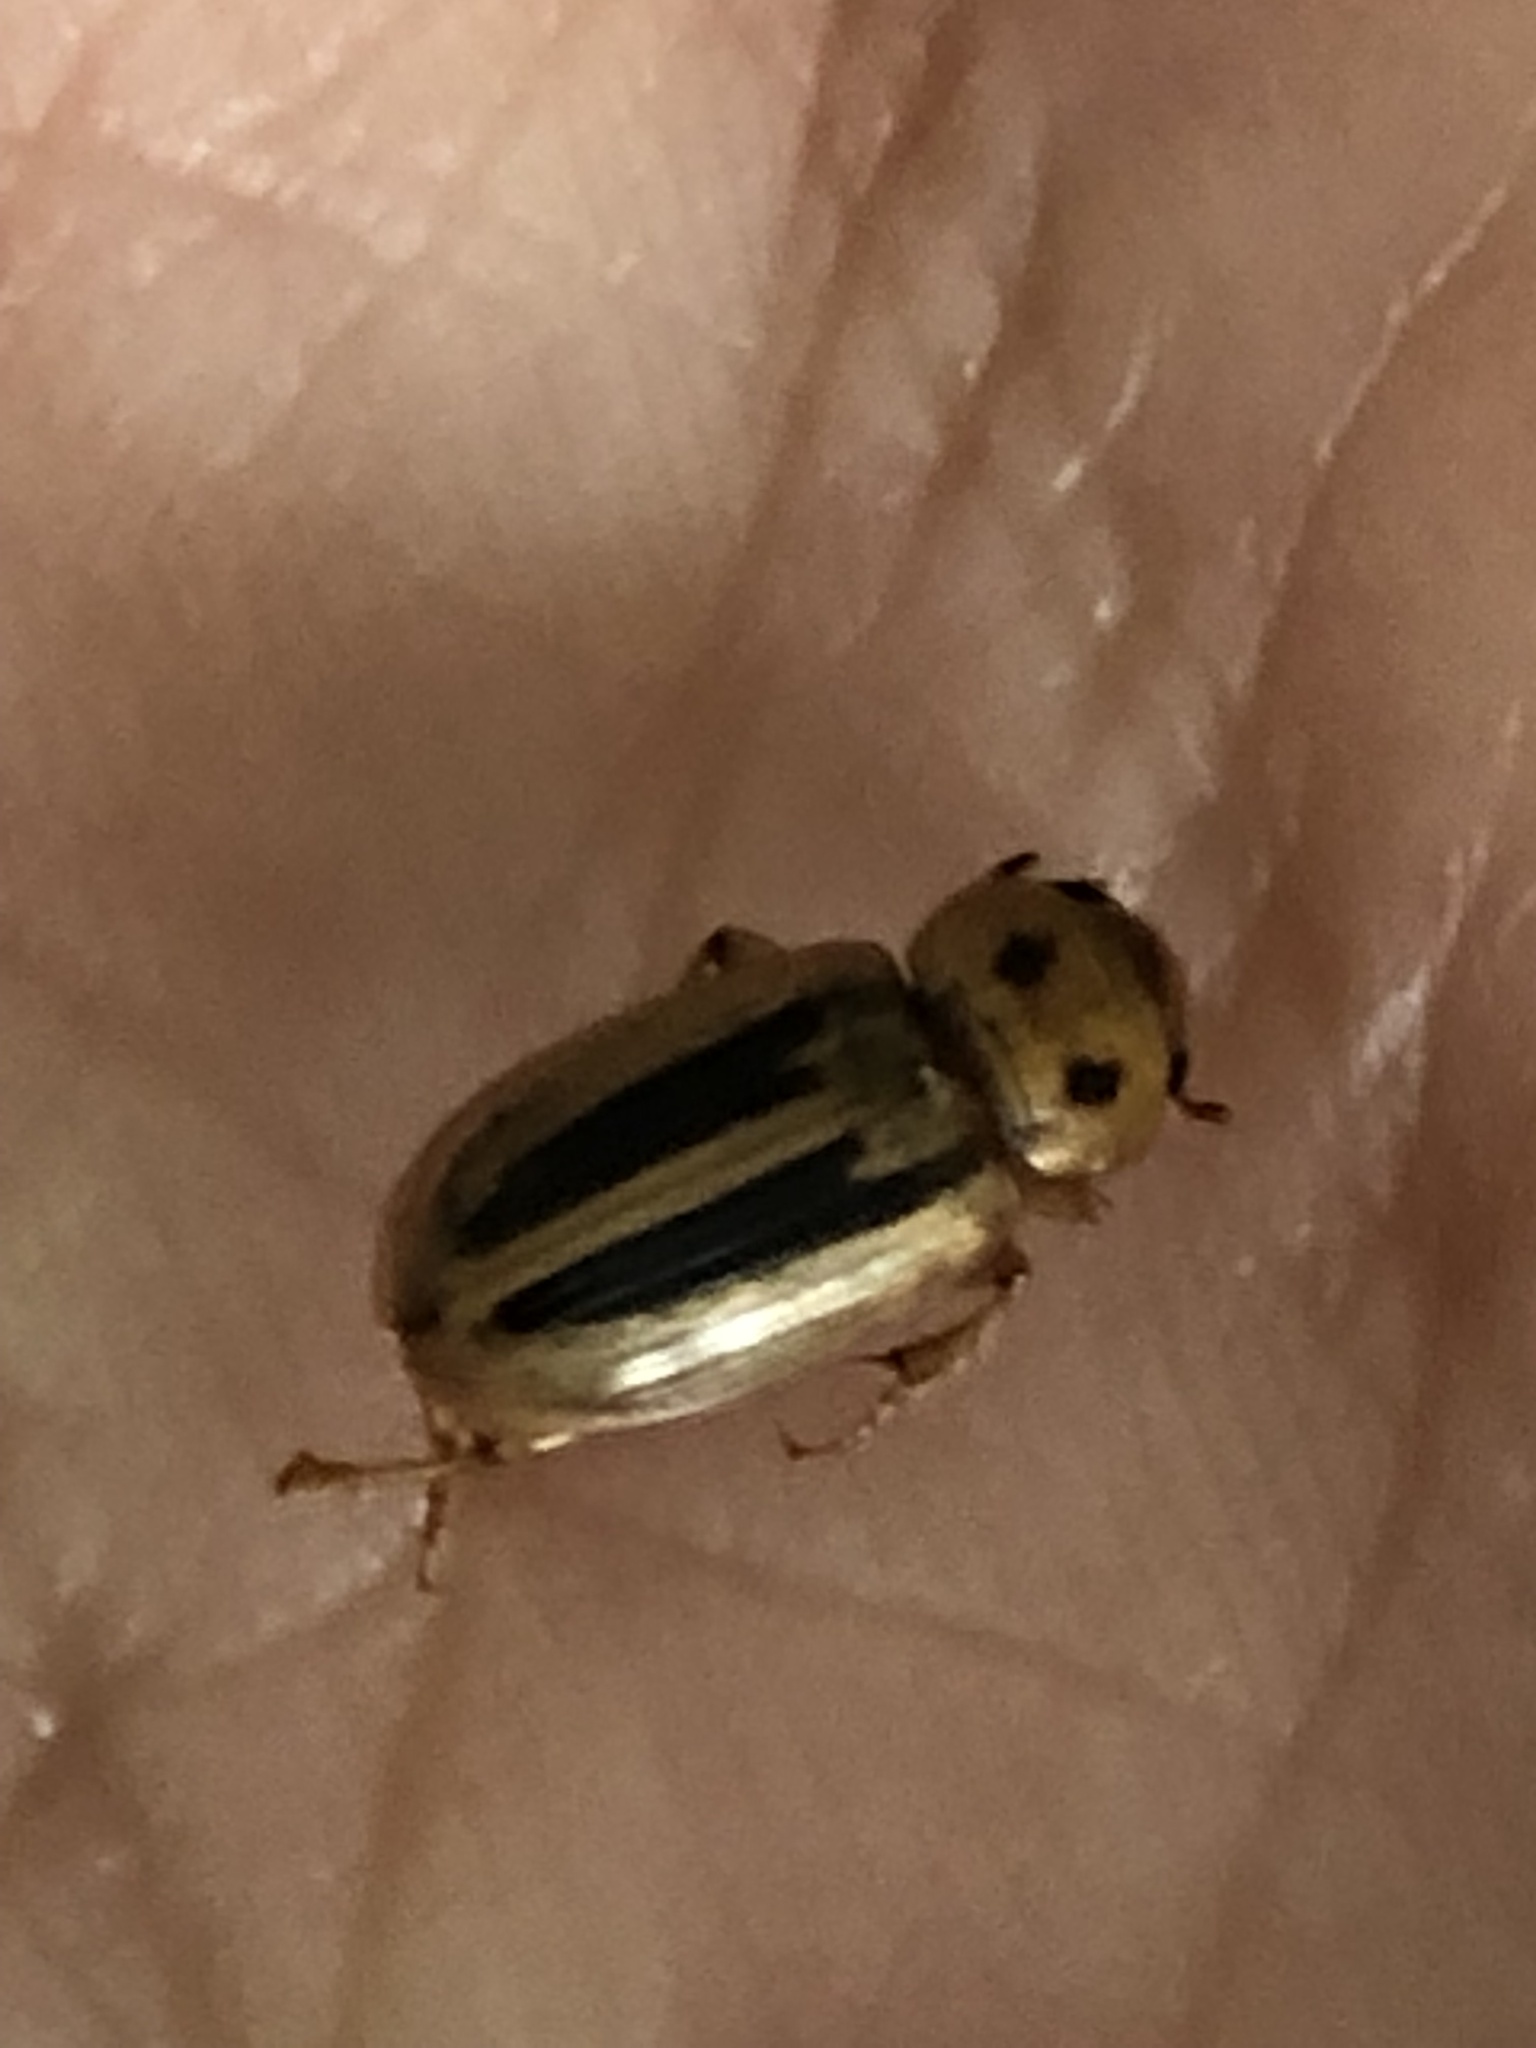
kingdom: Animalia
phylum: Arthropoda
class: Insecta
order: Coleoptera
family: Carabidae
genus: Stenolophus
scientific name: Stenolophus lineola
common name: Lined stenolophus
